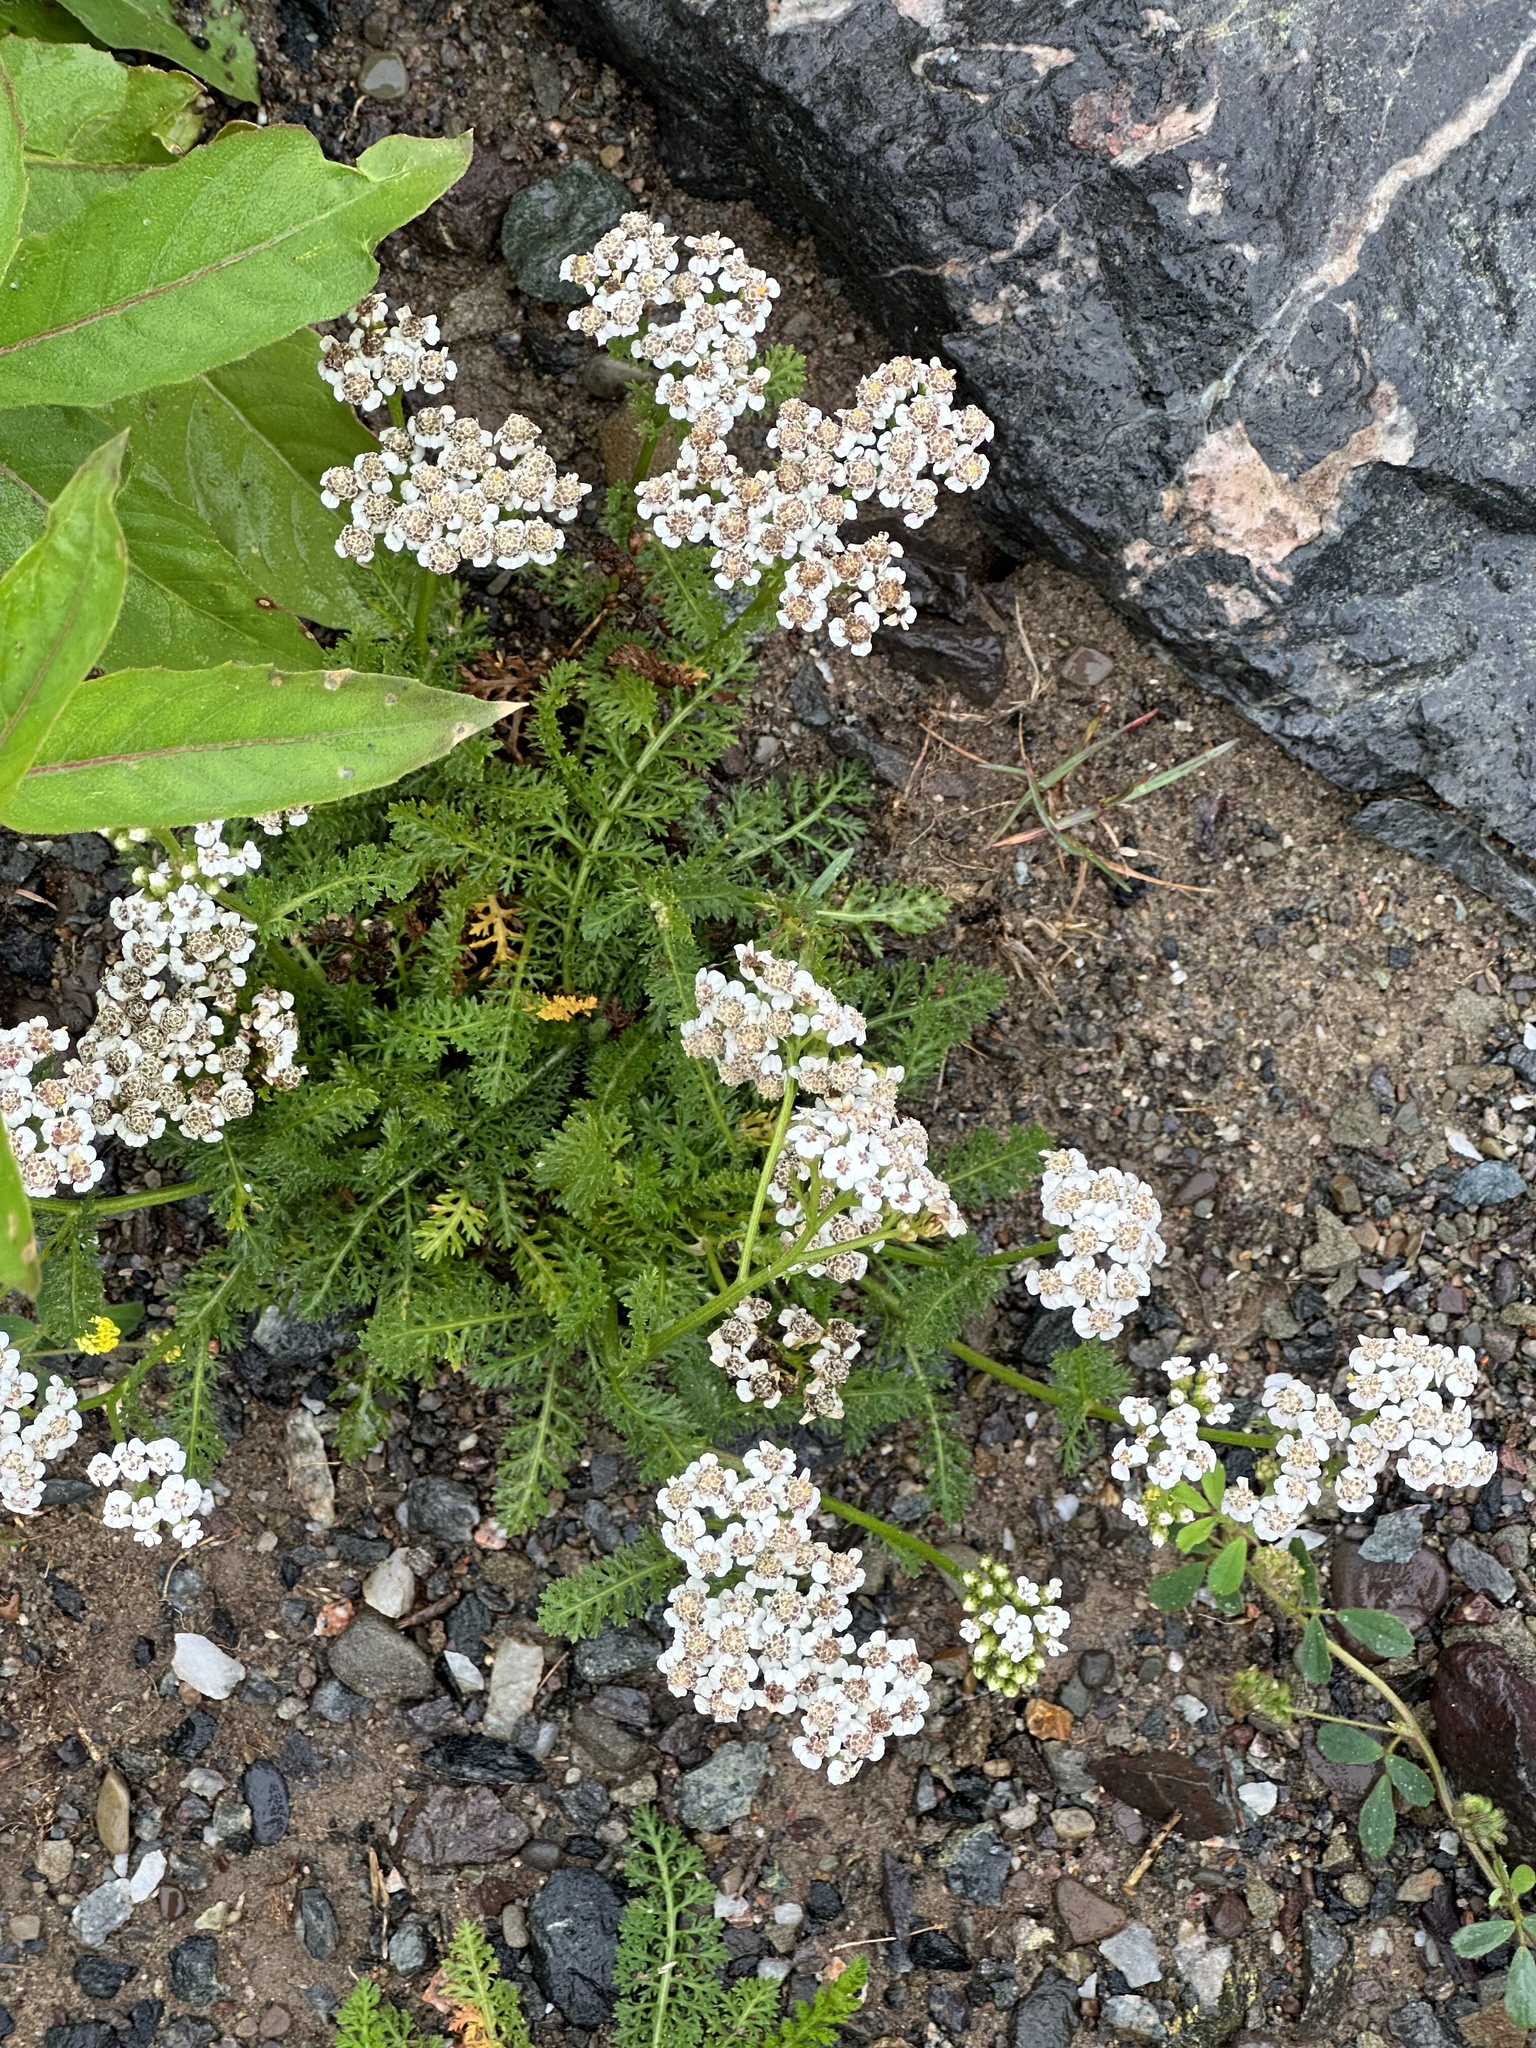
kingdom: Plantae
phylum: Tracheophyta
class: Magnoliopsida
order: Asterales
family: Asteraceae
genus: Achillea
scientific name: Achillea millefolium
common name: Yarrow
